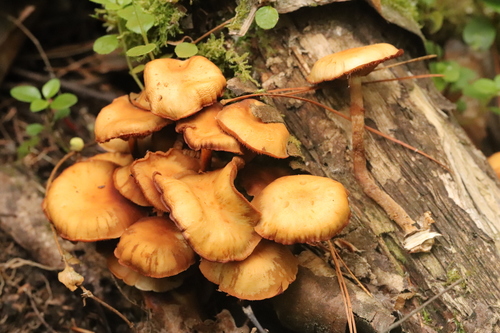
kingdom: Fungi
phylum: Basidiomycota
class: Agaricomycetes
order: Agaricales
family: Strophariaceae
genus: Kuehneromyces
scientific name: Kuehneromyces mutabilis
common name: Sheathed woodtuft
